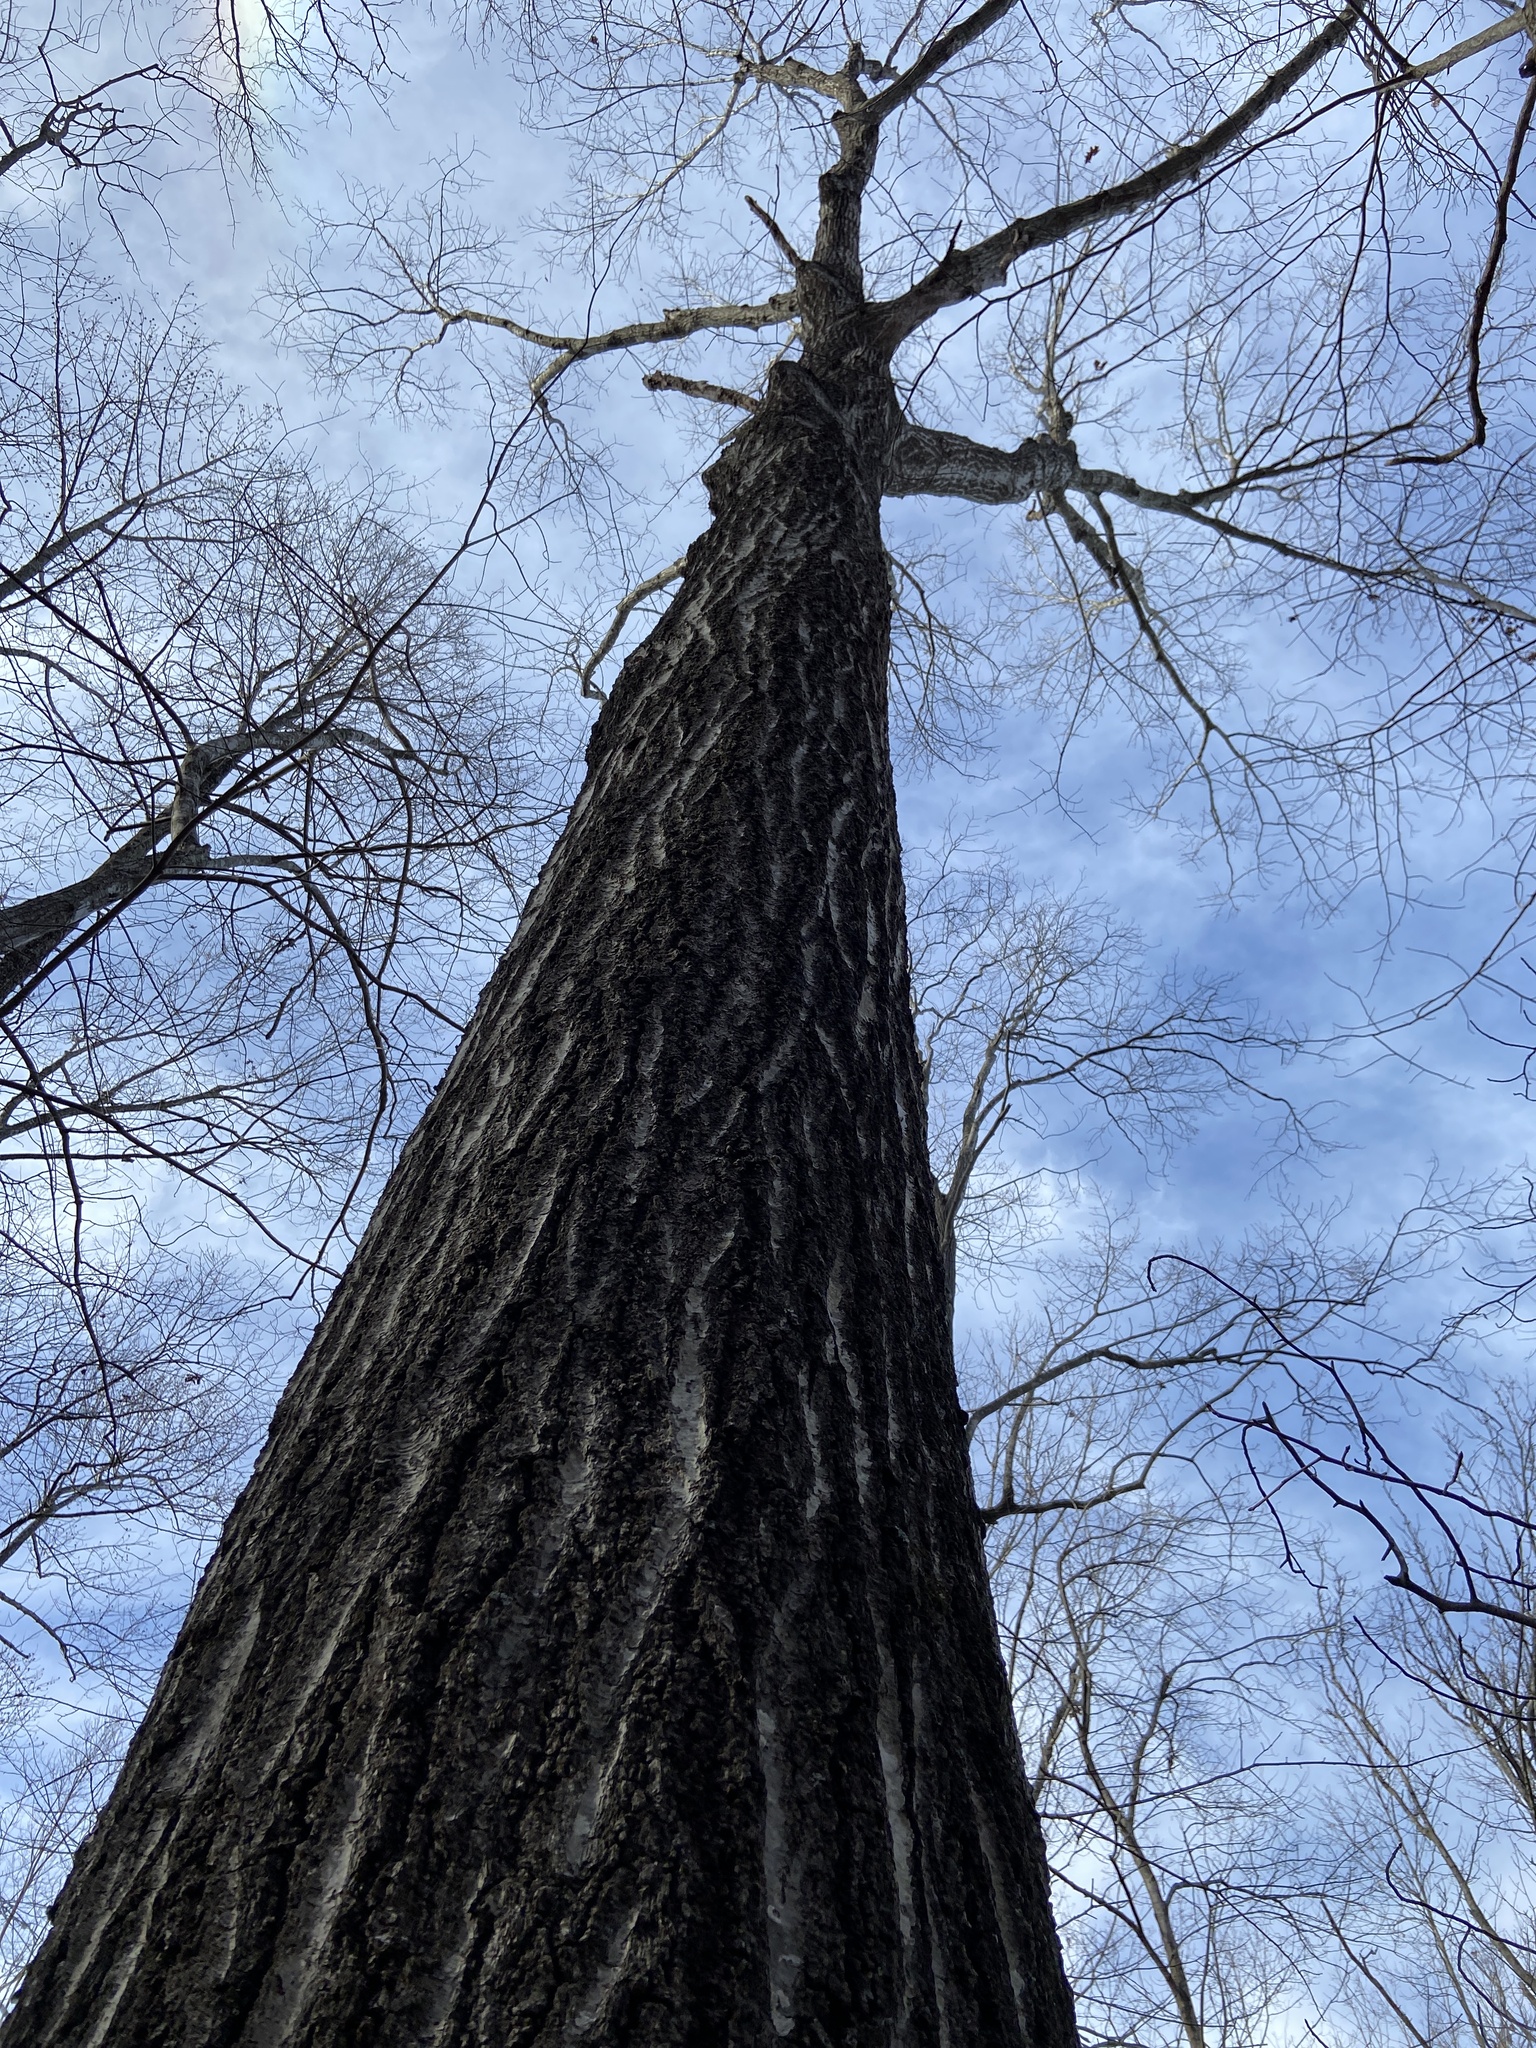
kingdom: Plantae
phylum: Tracheophyta
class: Magnoliopsida
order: Fagales
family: Fagaceae
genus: Quercus
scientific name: Quercus rubra
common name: Red oak
